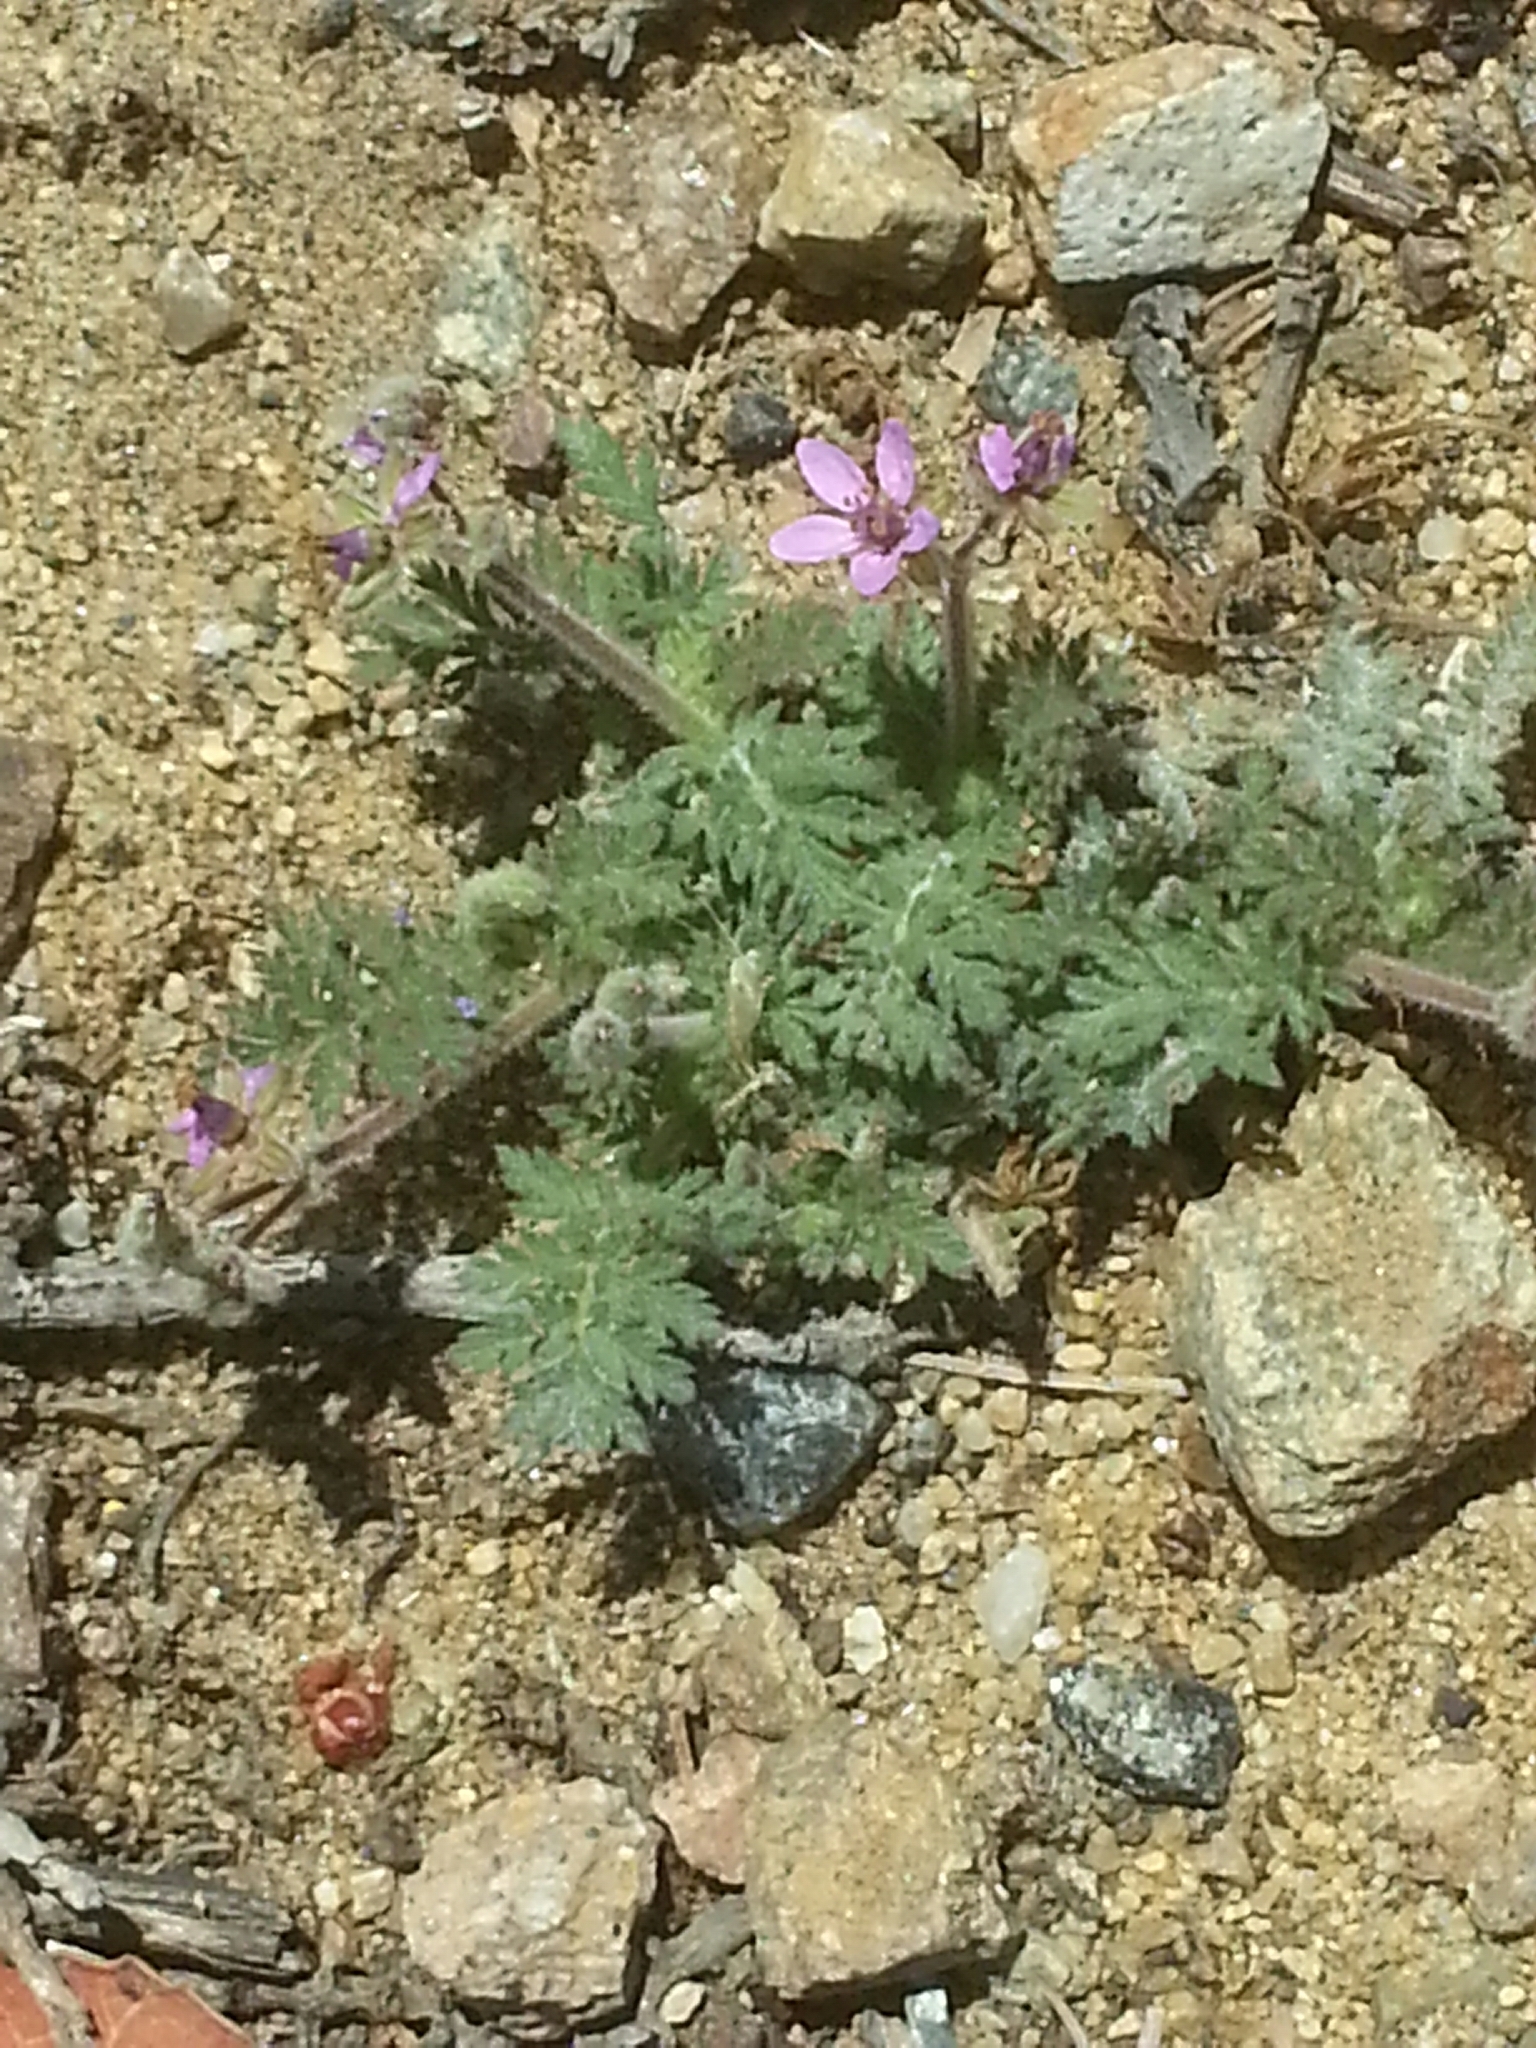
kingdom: Plantae
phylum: Tracheophyta
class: Magnoliopsida
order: Geraniales
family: Geraniaceae
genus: Erodium
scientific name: Erodium cicutarium
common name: Common stork's-bill
